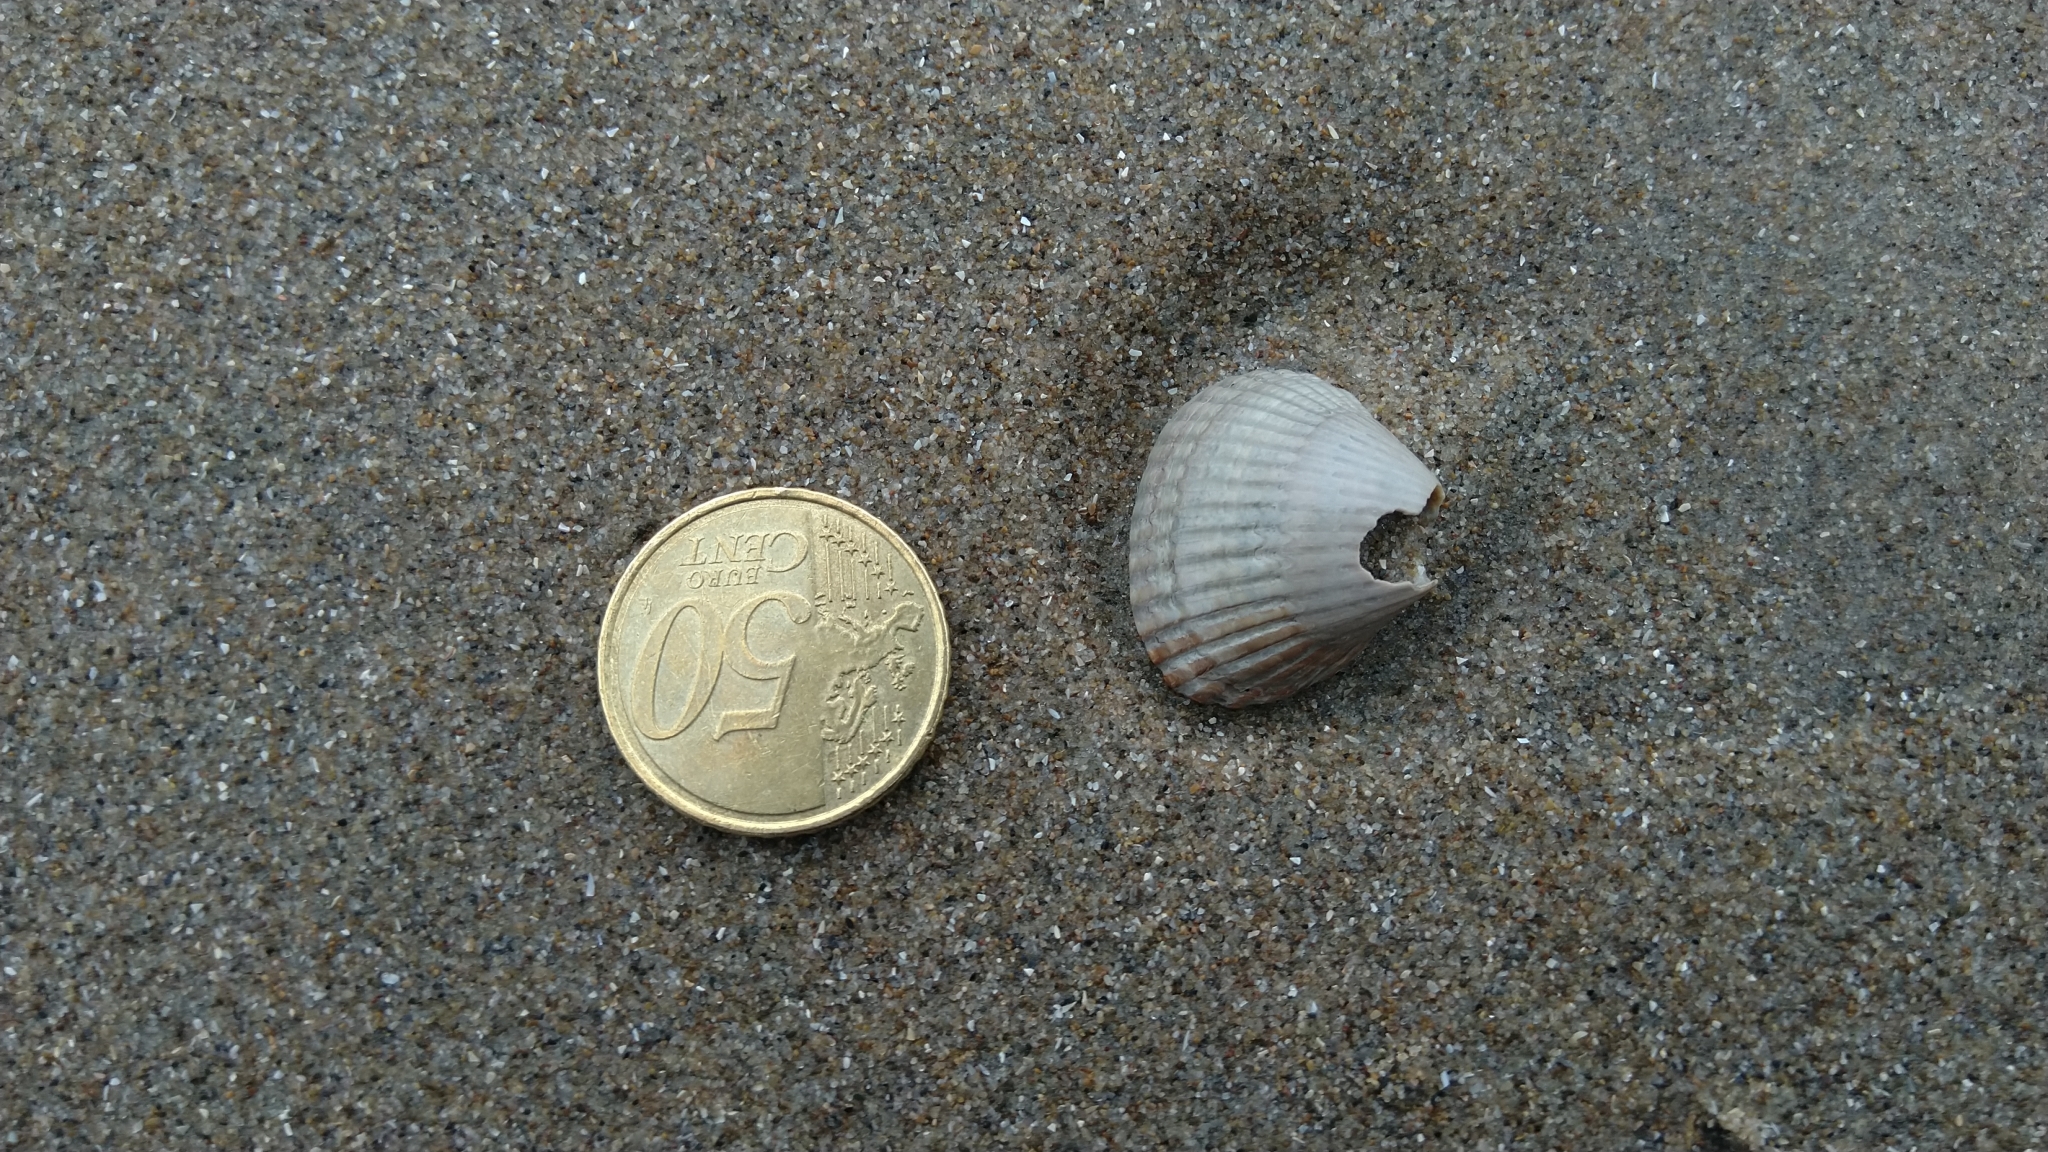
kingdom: Animalia
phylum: Mollusca
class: Bivalvia
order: Cardiida
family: Cardiidae
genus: Cerastoderma
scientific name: Cerastoderma edule
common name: Common cockle
